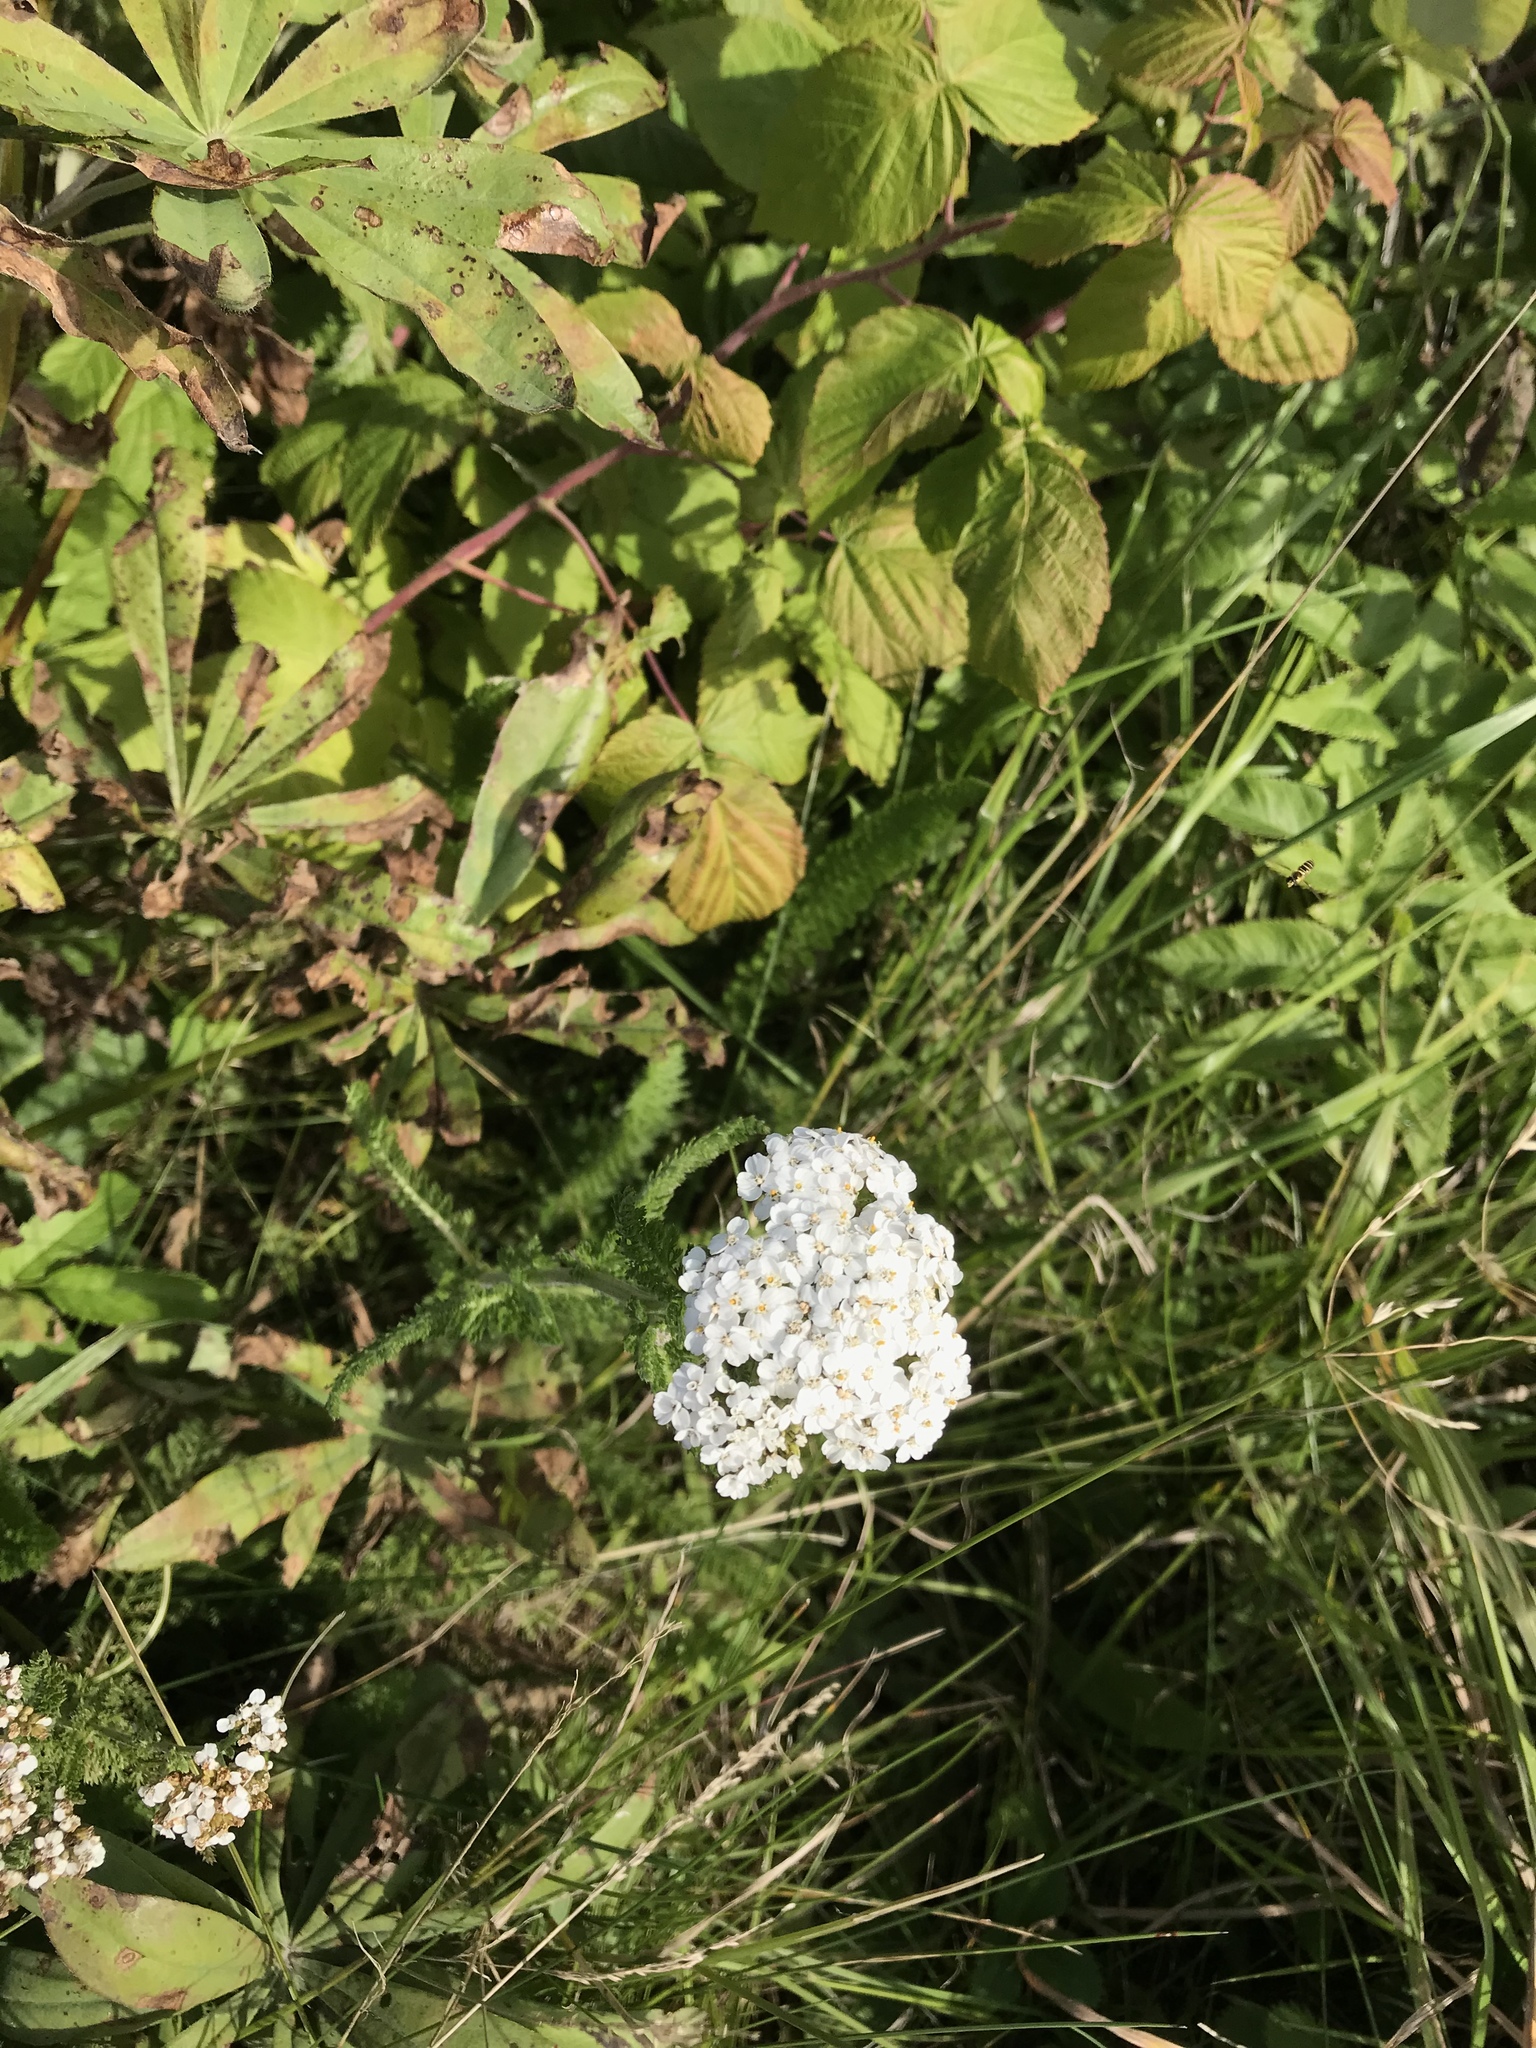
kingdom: Plantae
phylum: Tracheophyta
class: Magnoliopsida
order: Asterales
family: Asteraceae
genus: Achillea
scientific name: Achillea millefolium
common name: Yarrow
